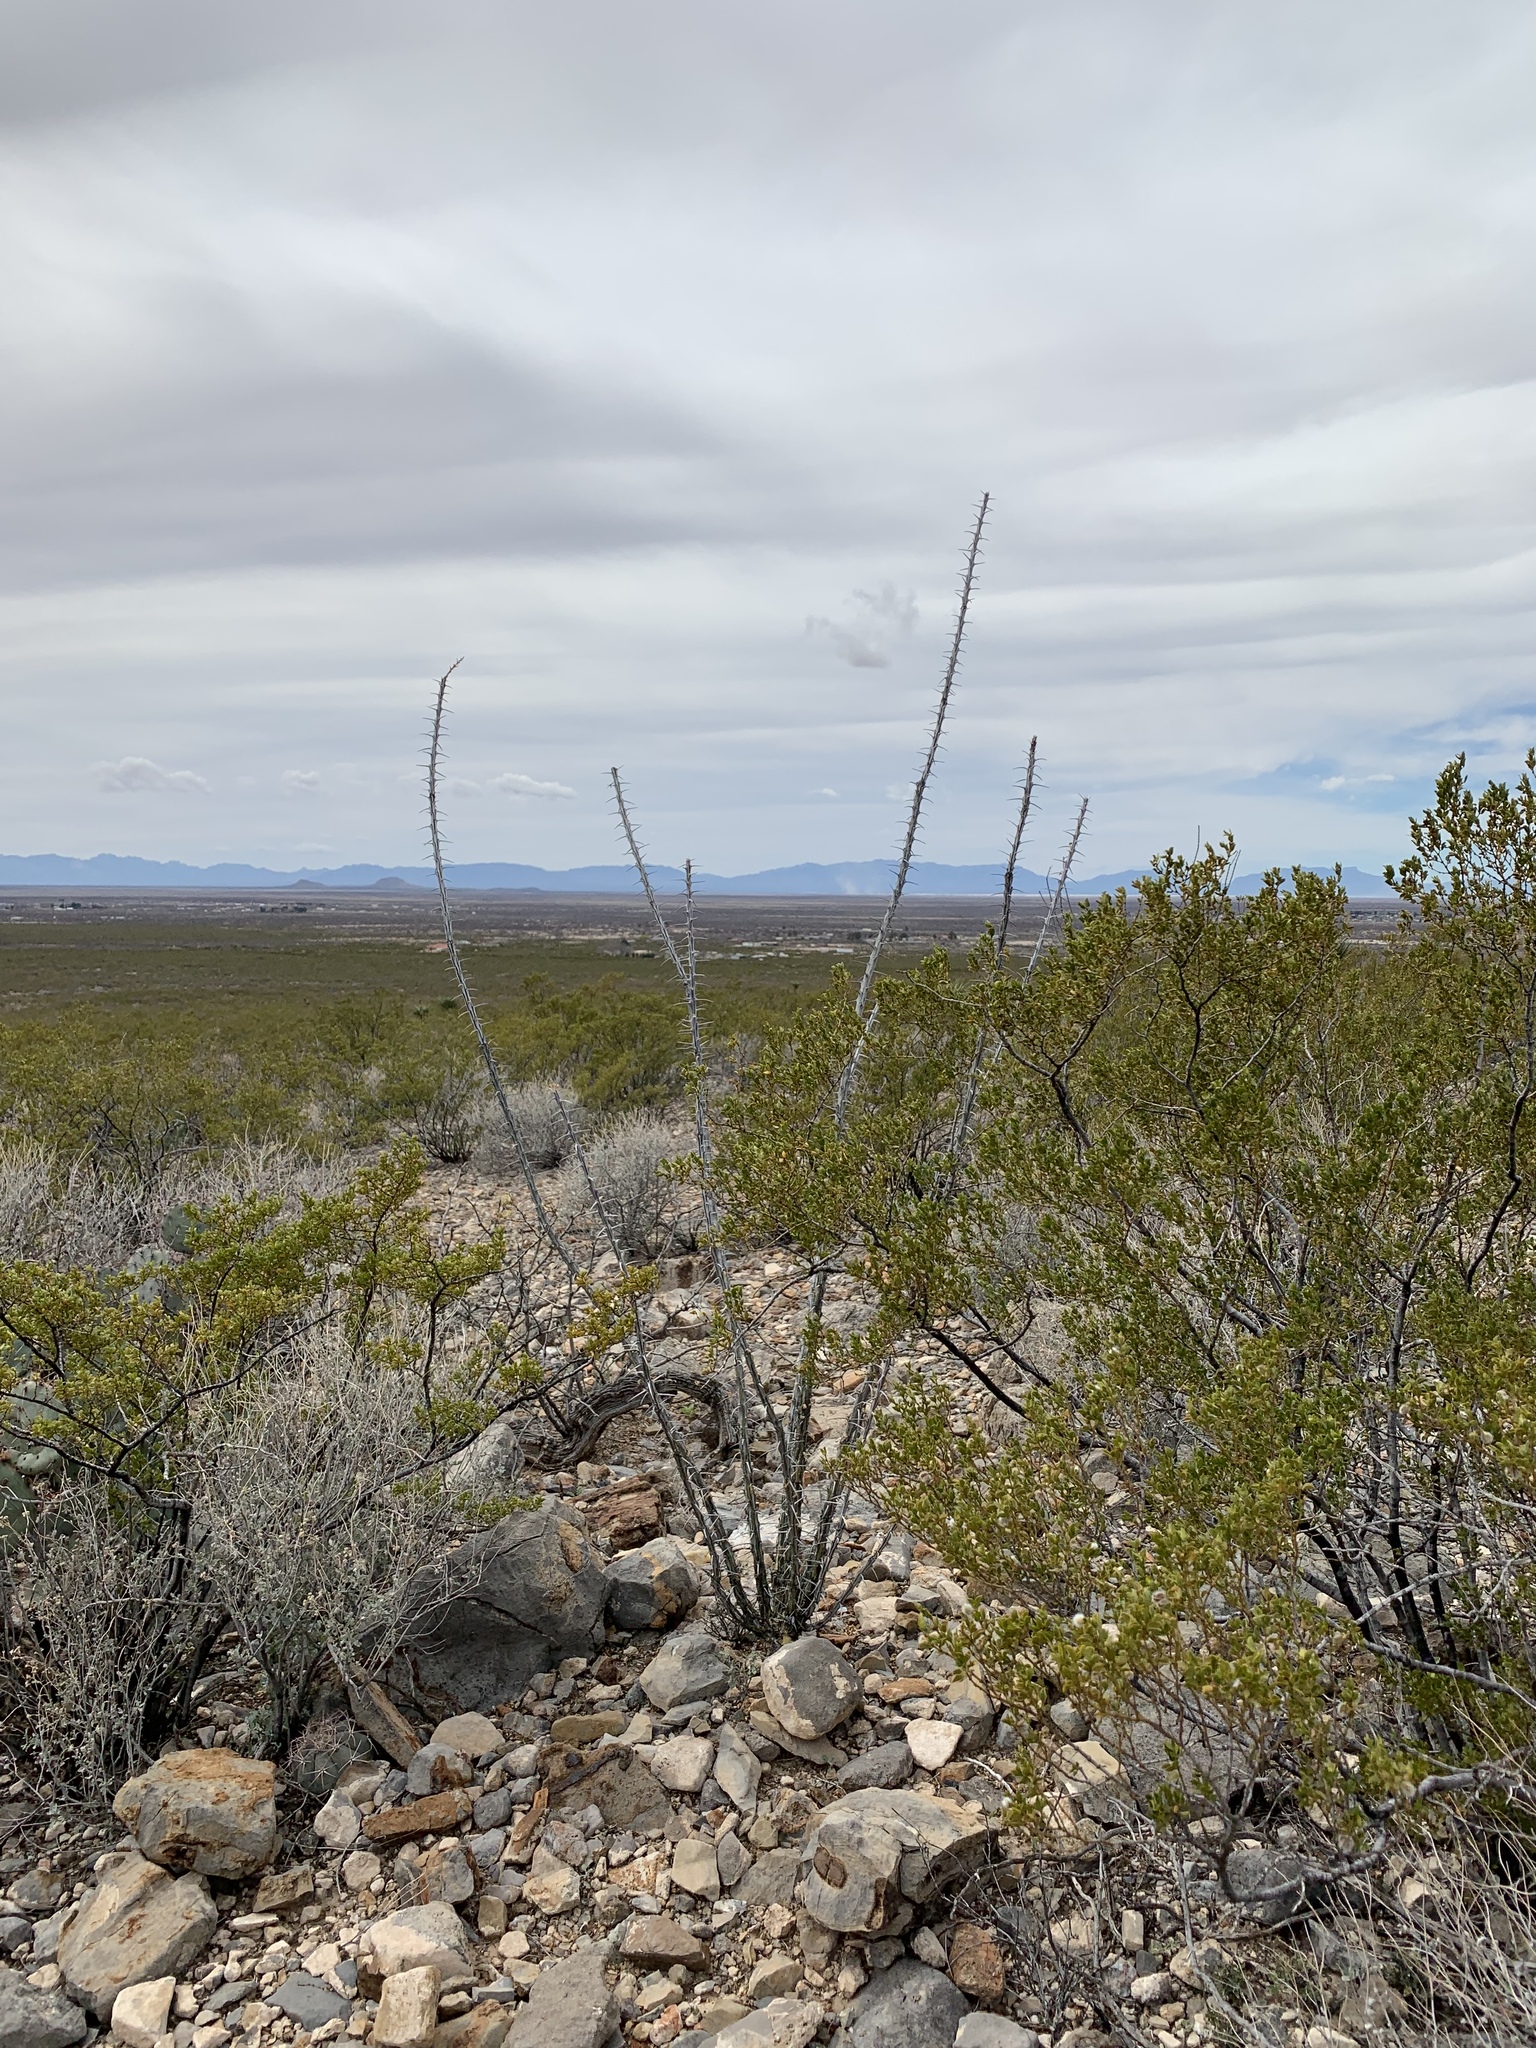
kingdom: Plantae
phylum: Tracheophyta
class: Magnoliopsida
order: Ericales
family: Fouquieriaceae
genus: Fouquieria
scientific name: Fouquieria splendens
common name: Vine-cactus
